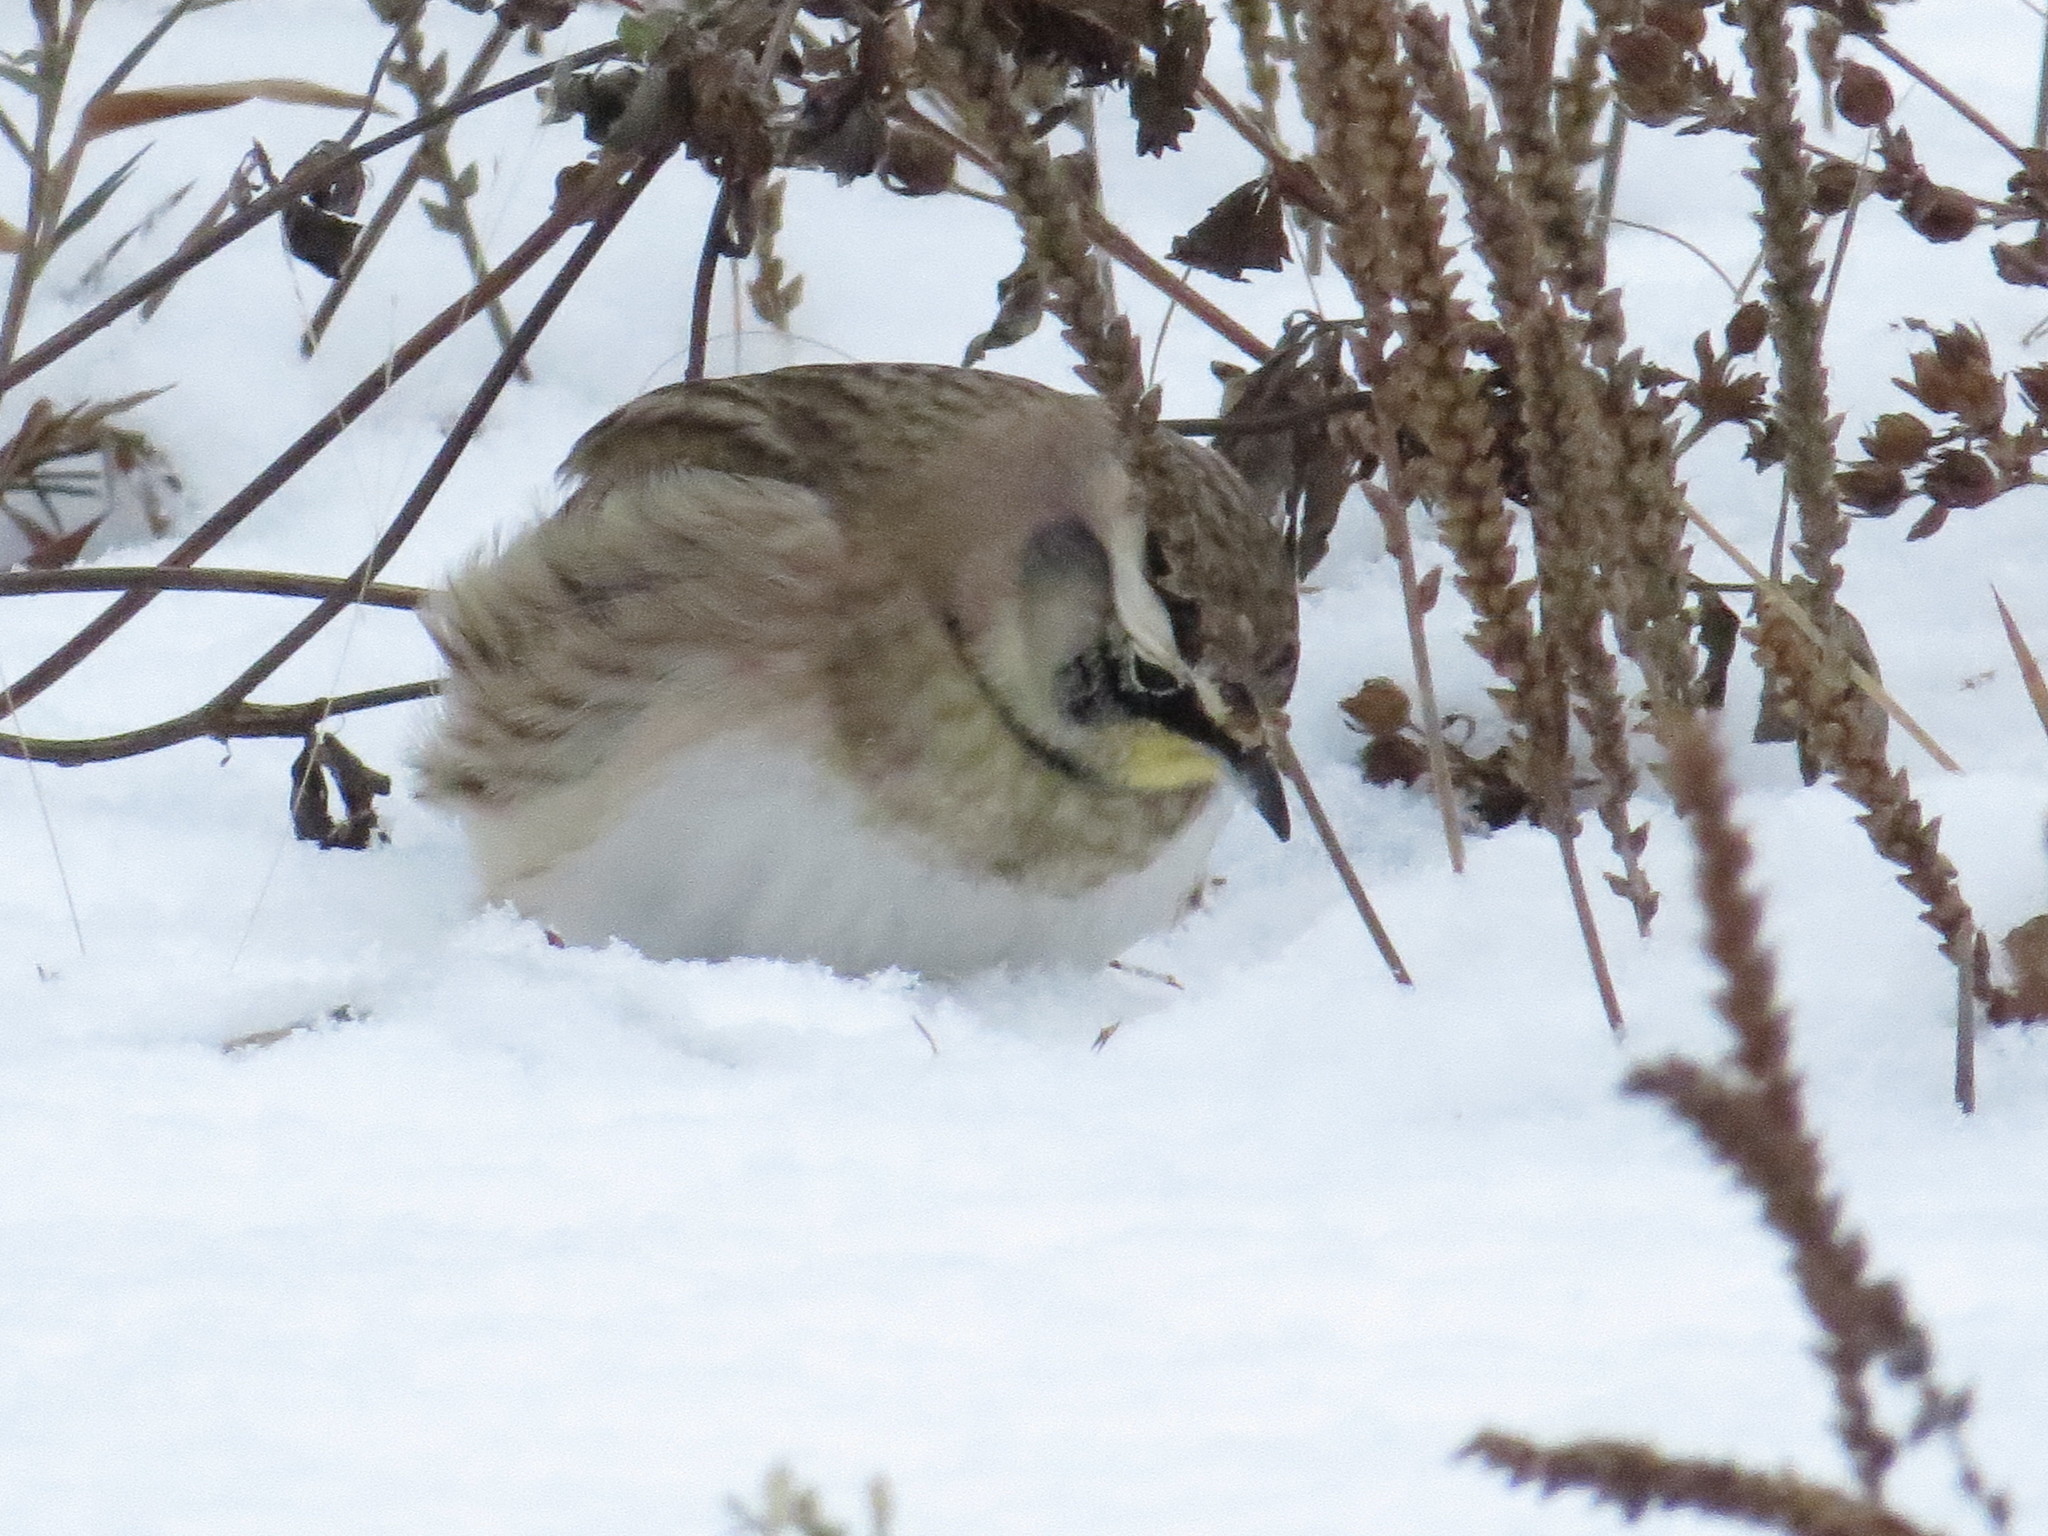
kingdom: Animalia
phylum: Chordata
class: Aves
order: Passeriformes
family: Alaudidae
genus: Eremophila
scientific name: Eremophila alpestris
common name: Horned lark
